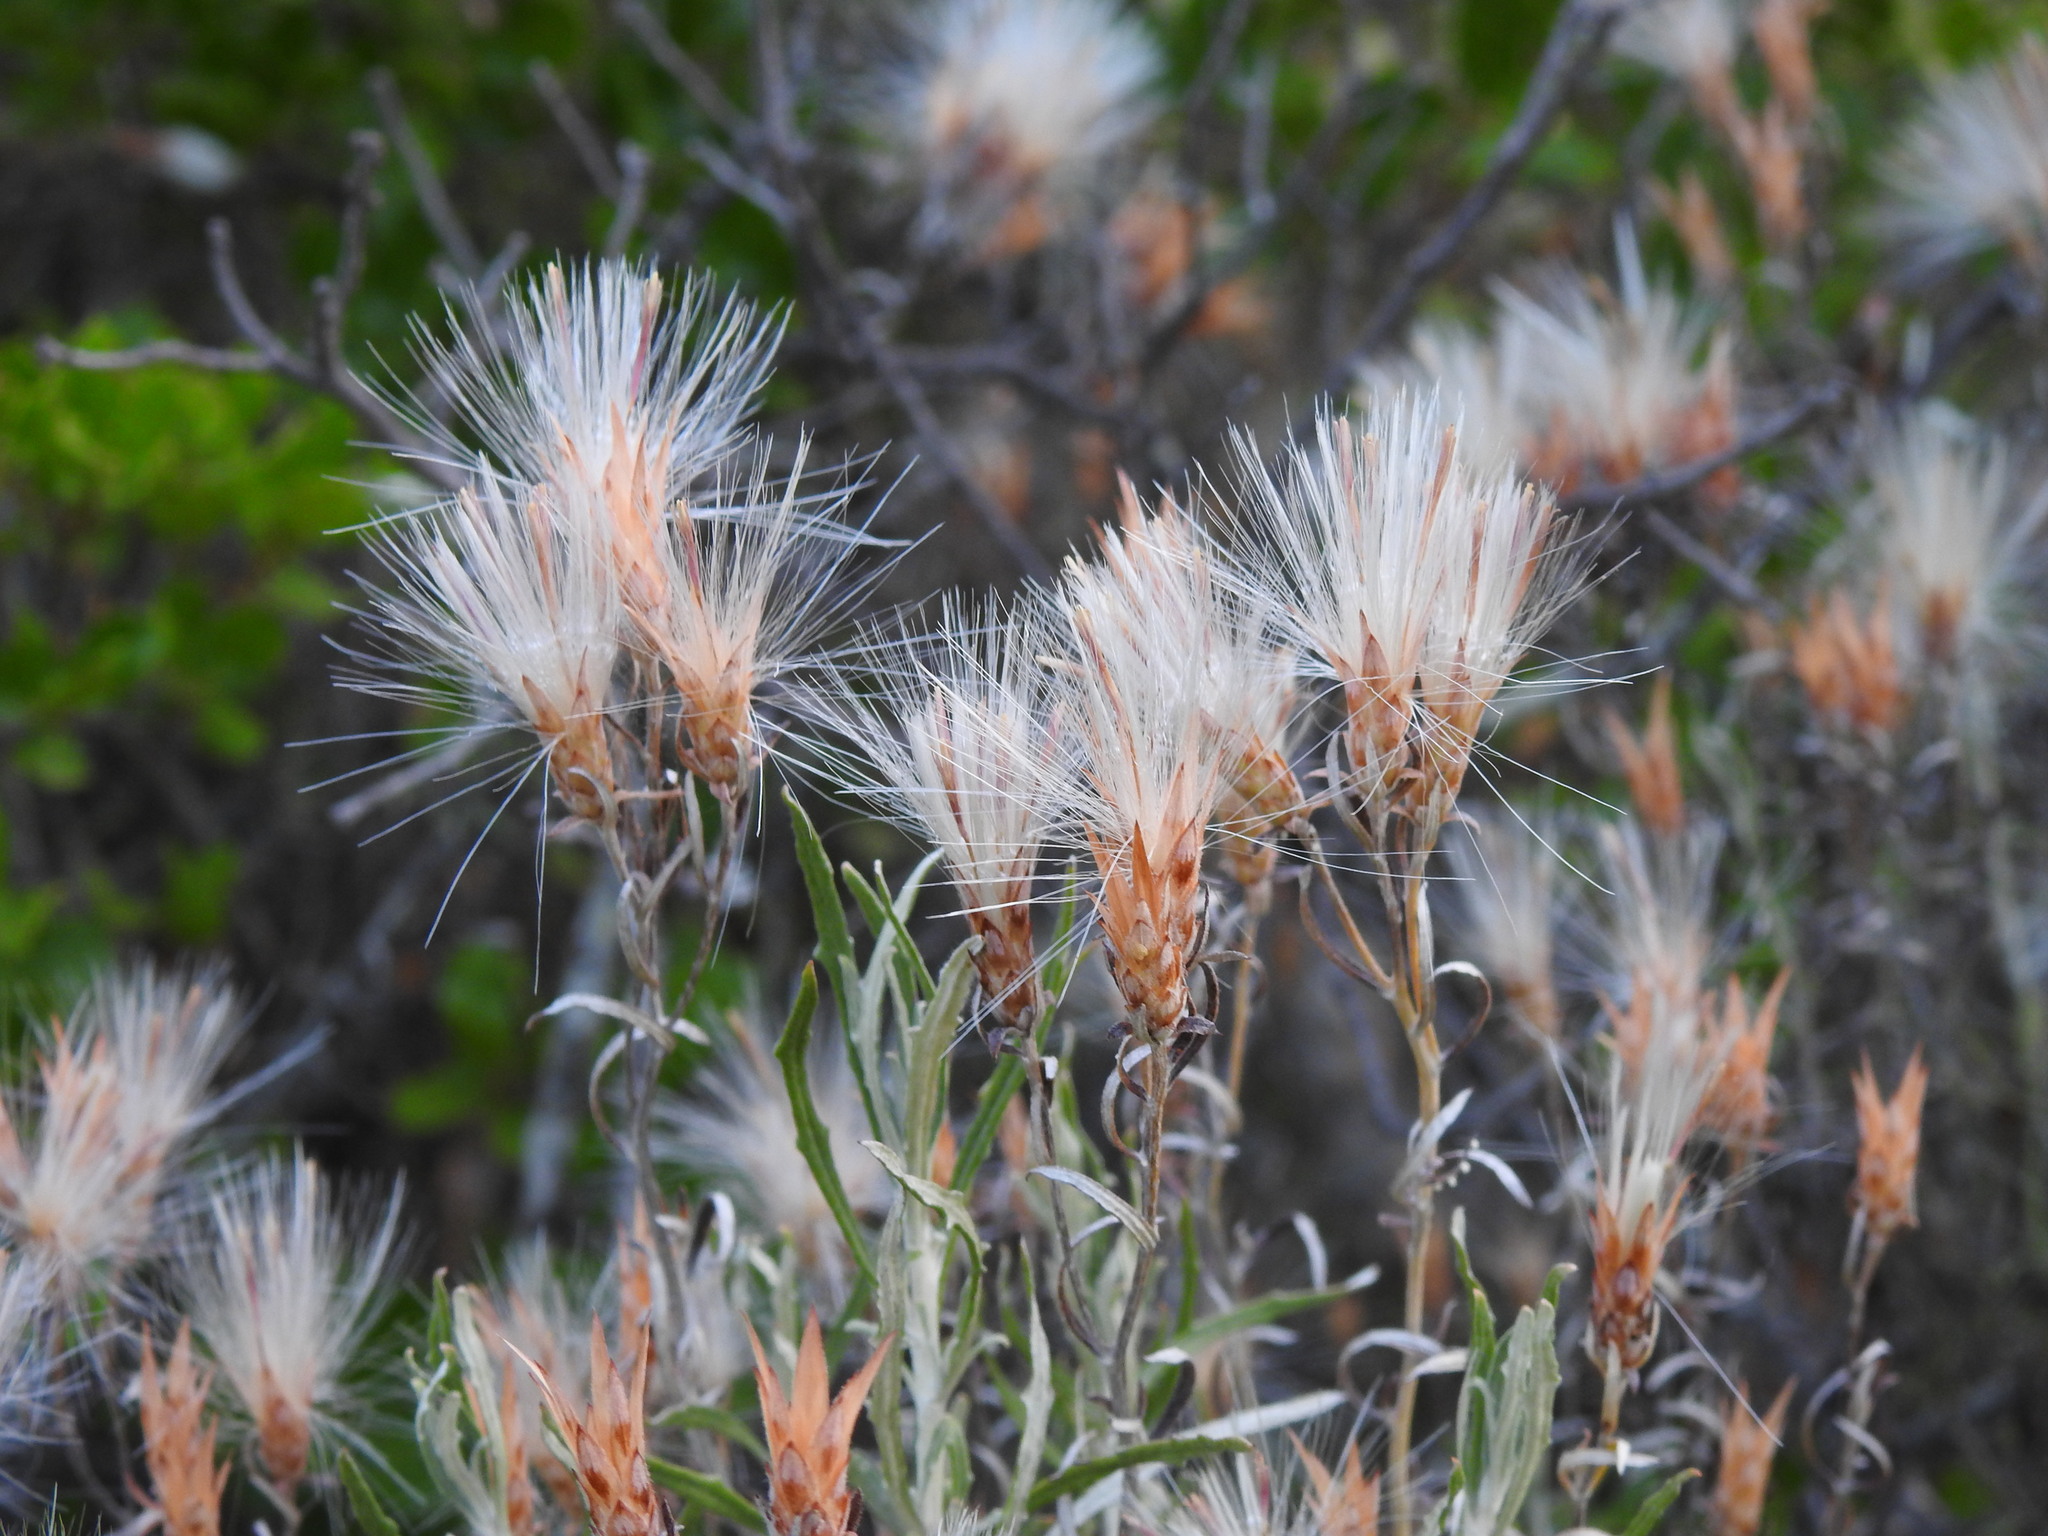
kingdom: Plantae
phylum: Tracheophyta
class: Magnoliopsida
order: Asterales
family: Asteraceae
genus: Staehelina
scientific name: Staehelina dubia
